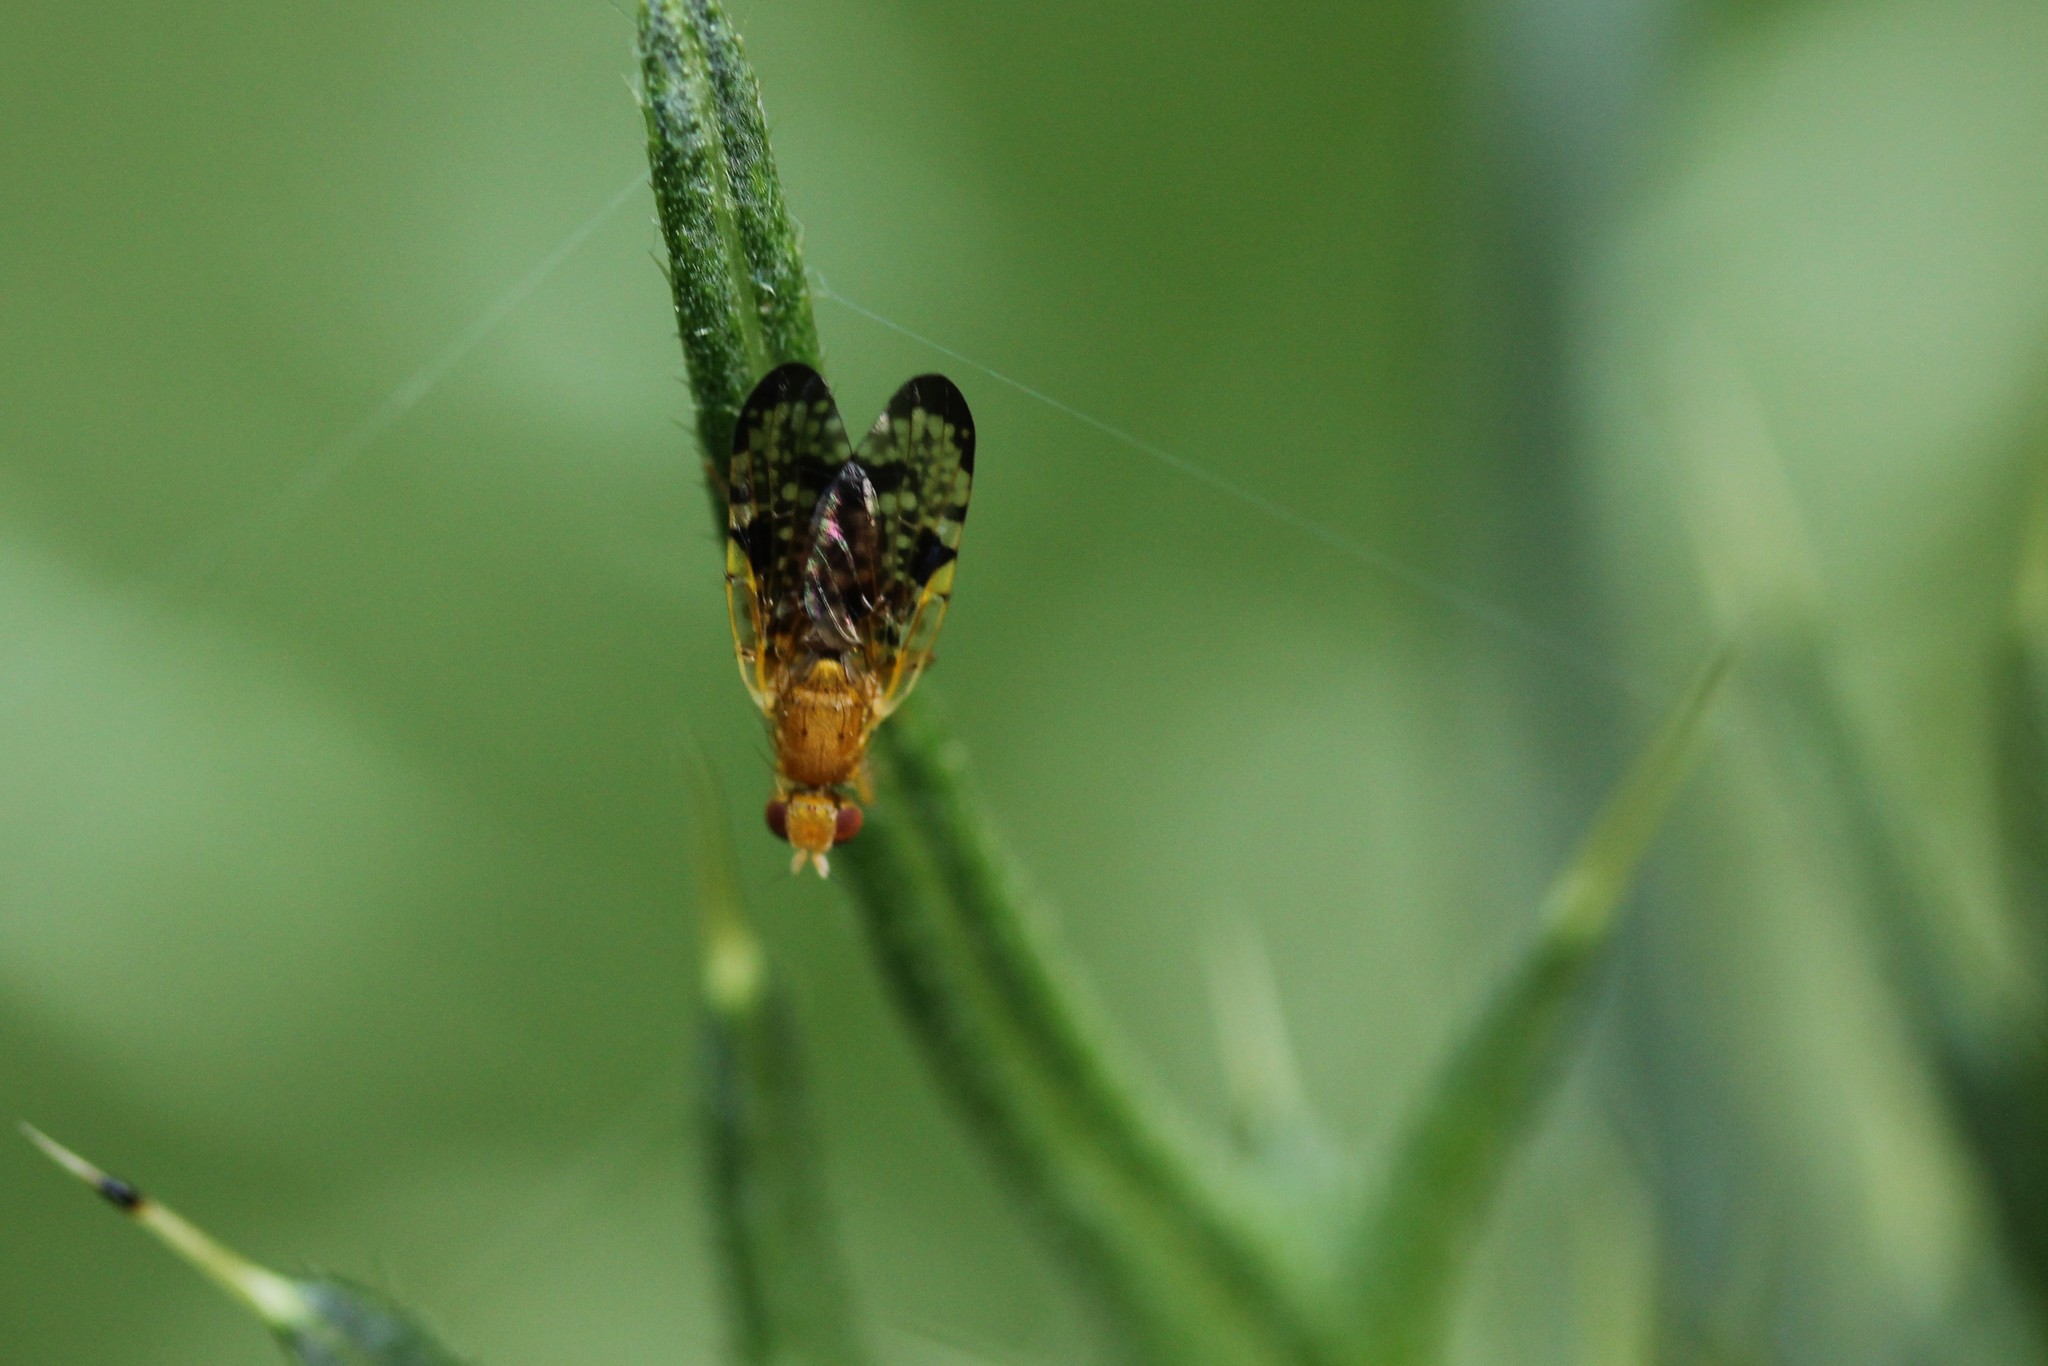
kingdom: Animalia
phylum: Arthropoda
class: Insecta
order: Diptera
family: Tephritidae
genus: Xyphosia
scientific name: Xyphosia miliaria
